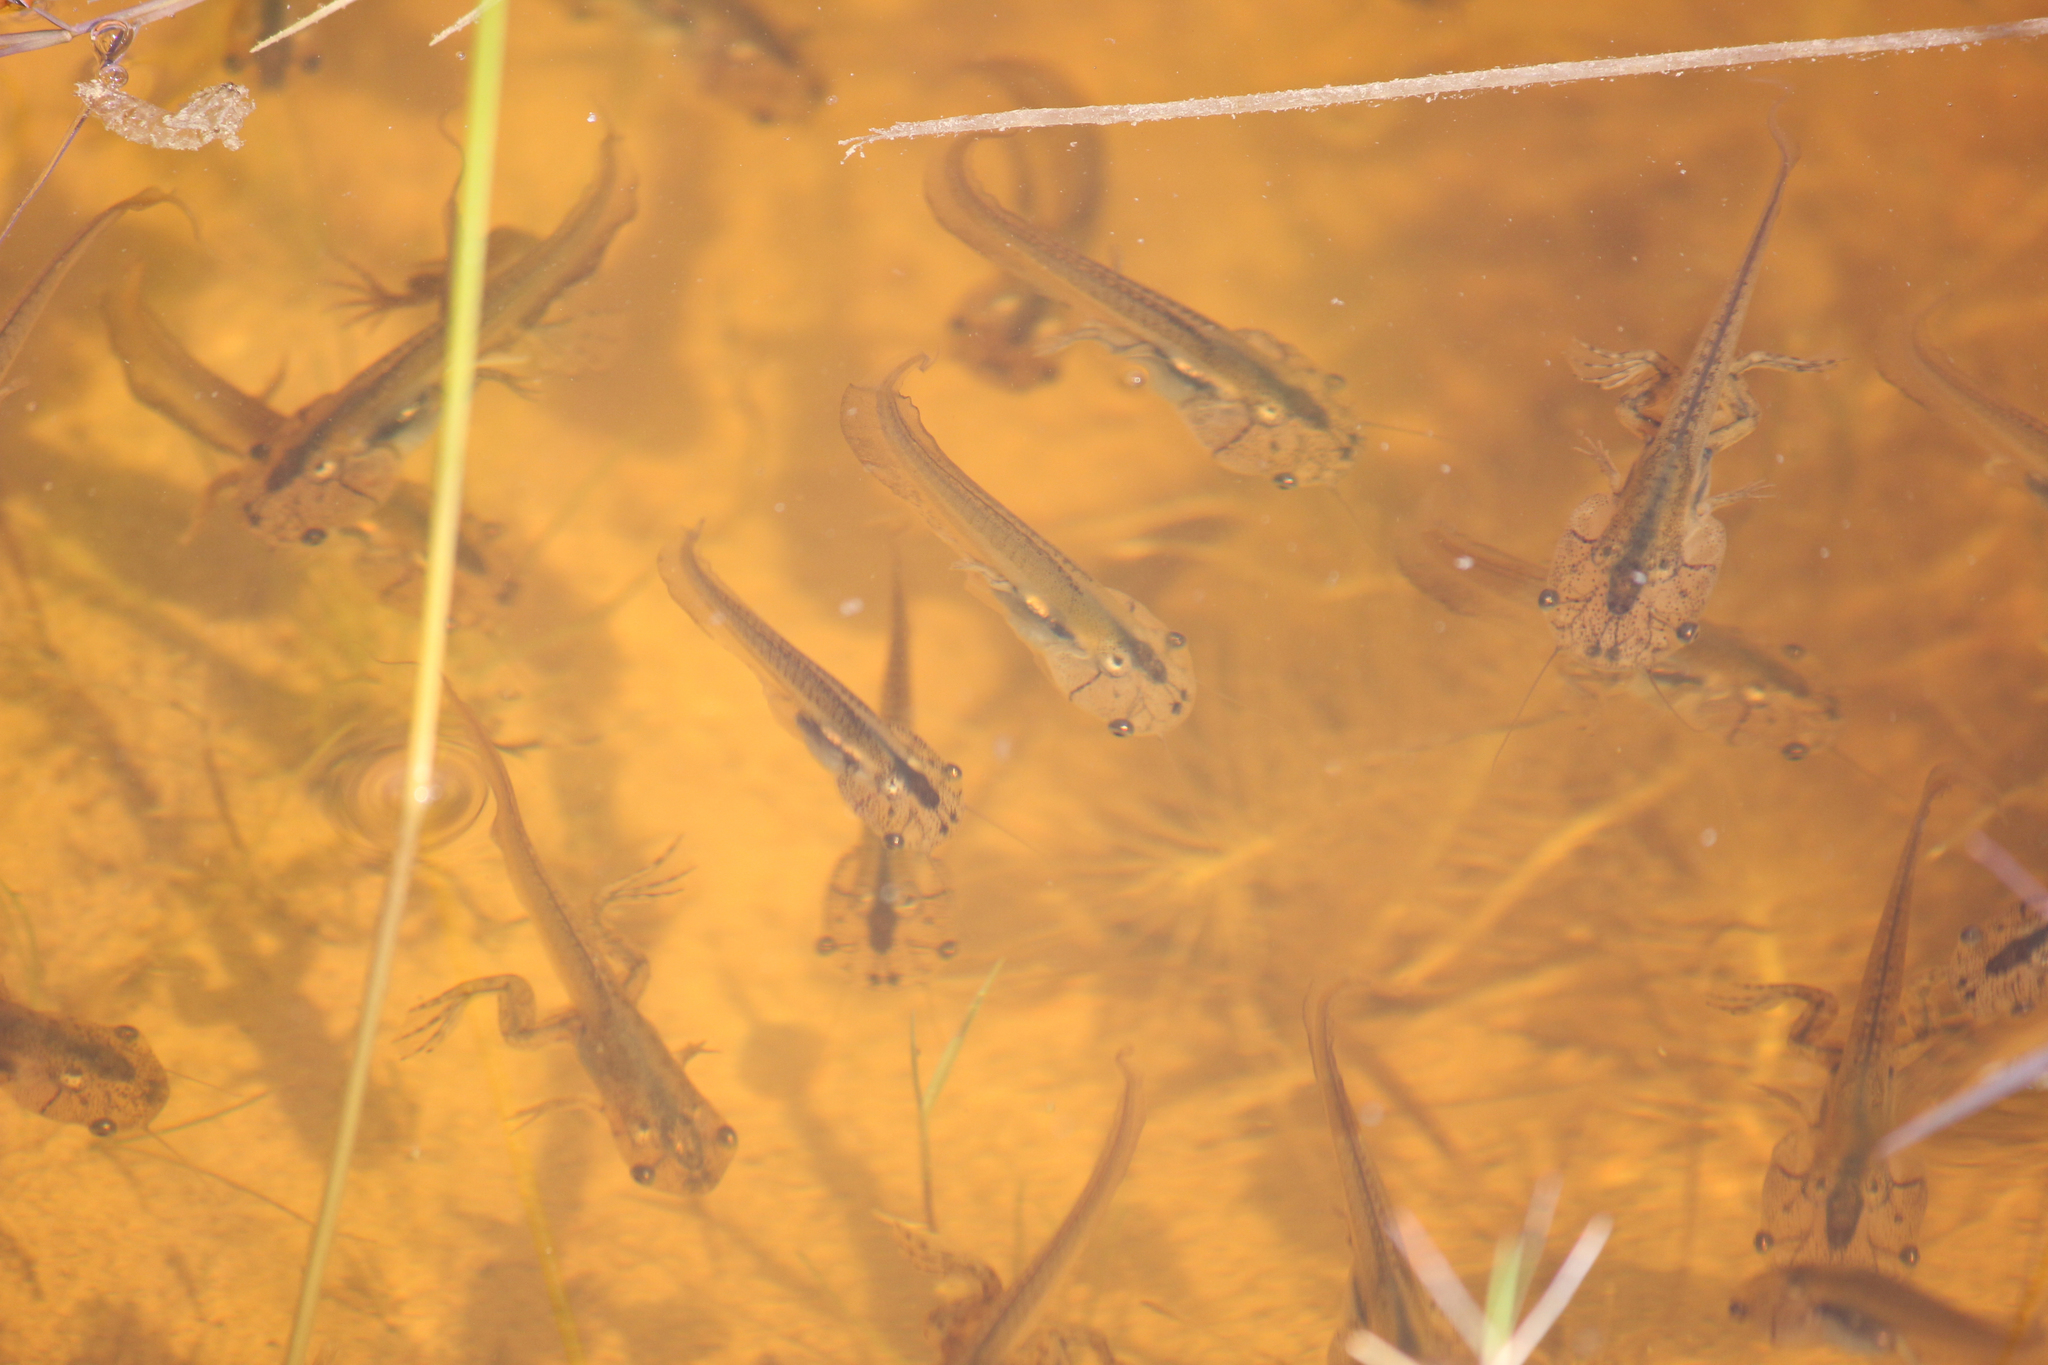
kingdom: Animalia
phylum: Chordata
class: Amphibia
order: Anura
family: Pipidae
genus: Xenopus
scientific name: Xenopus laevis
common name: African clawed frog
